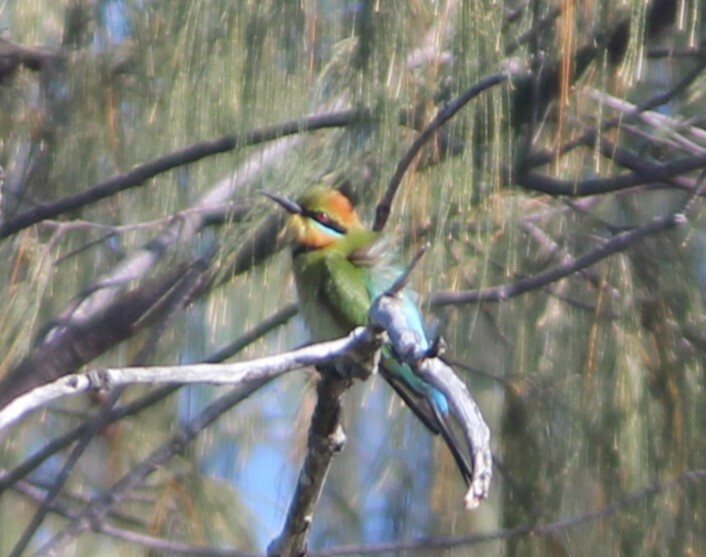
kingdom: Animalia
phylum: Chordata
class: Aves
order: Coraciiformes
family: Meropidae
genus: Merops
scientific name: Merops ornatus
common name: Rainbow bee-eater
